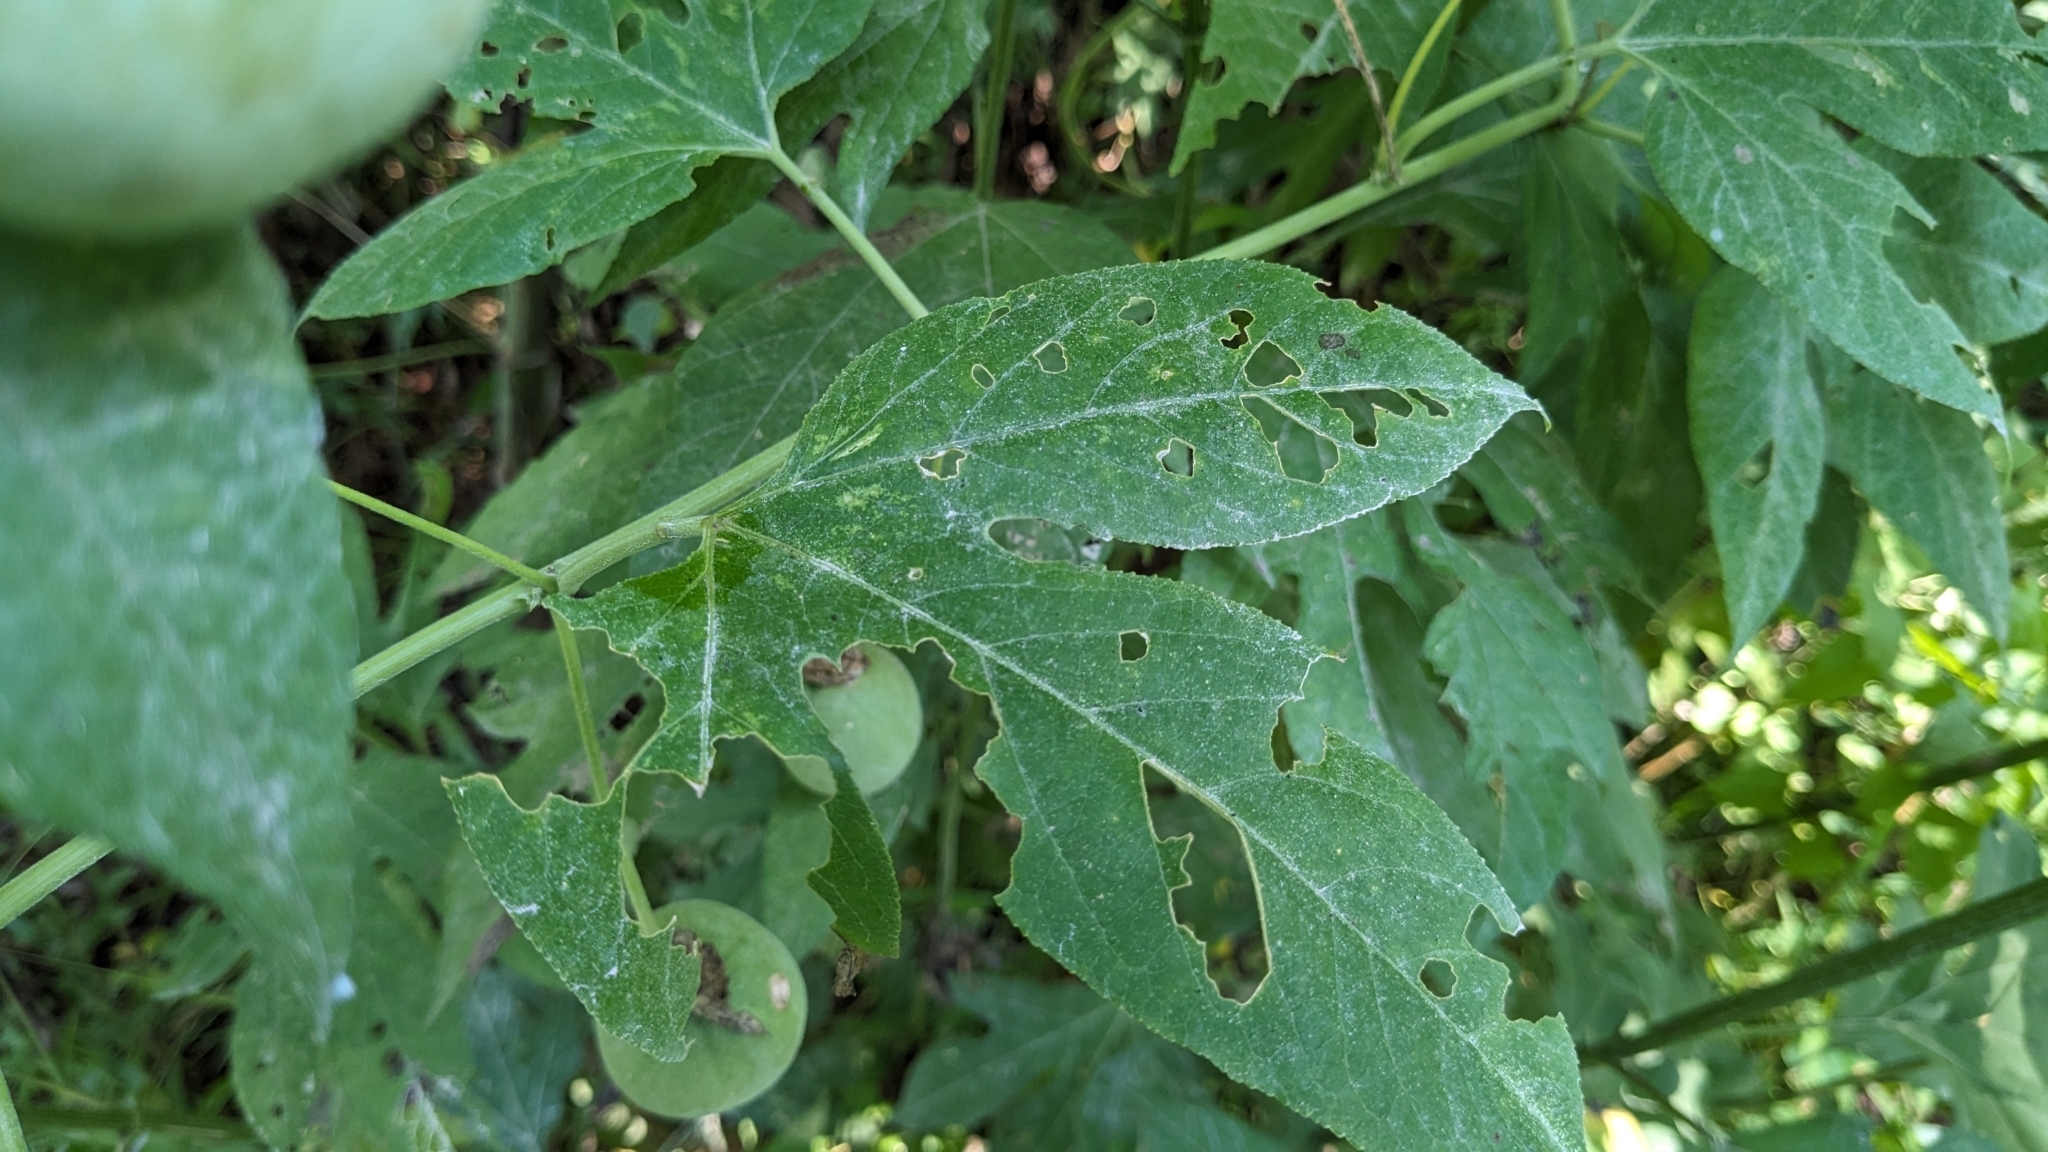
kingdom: Plantae
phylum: Tracheophyta
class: Magnoliopsida
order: Malpighiales
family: Passifloraceae
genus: Passiflora
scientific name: Passiflora incarnata
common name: Apricot-vine
